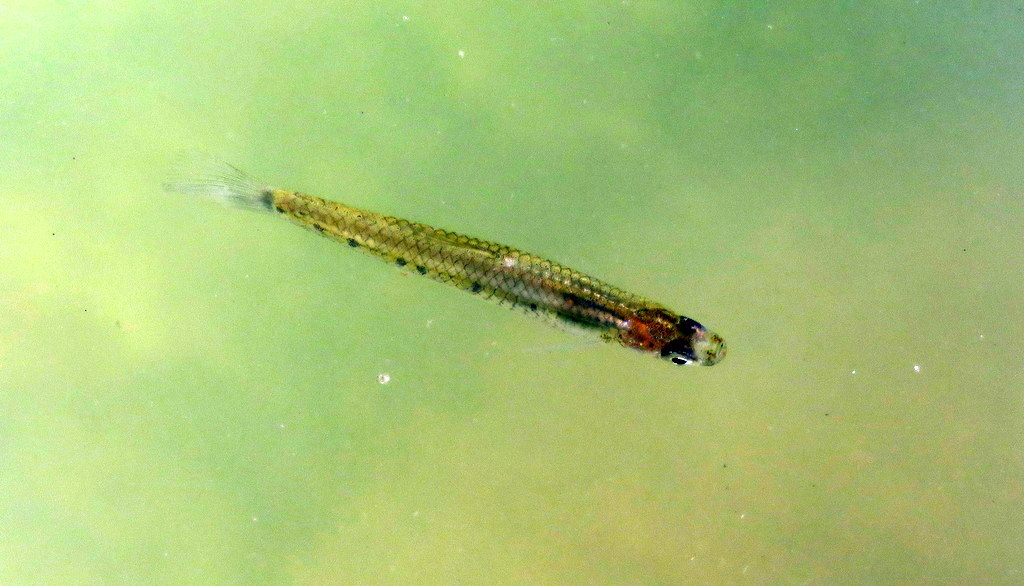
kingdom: Animalia
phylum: Chordata
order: Cyprinodontiformes
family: Poeciliidae
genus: Cnesterodon
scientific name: Cnesterodon decemmaculatus
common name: Ten spotted live-bearer
